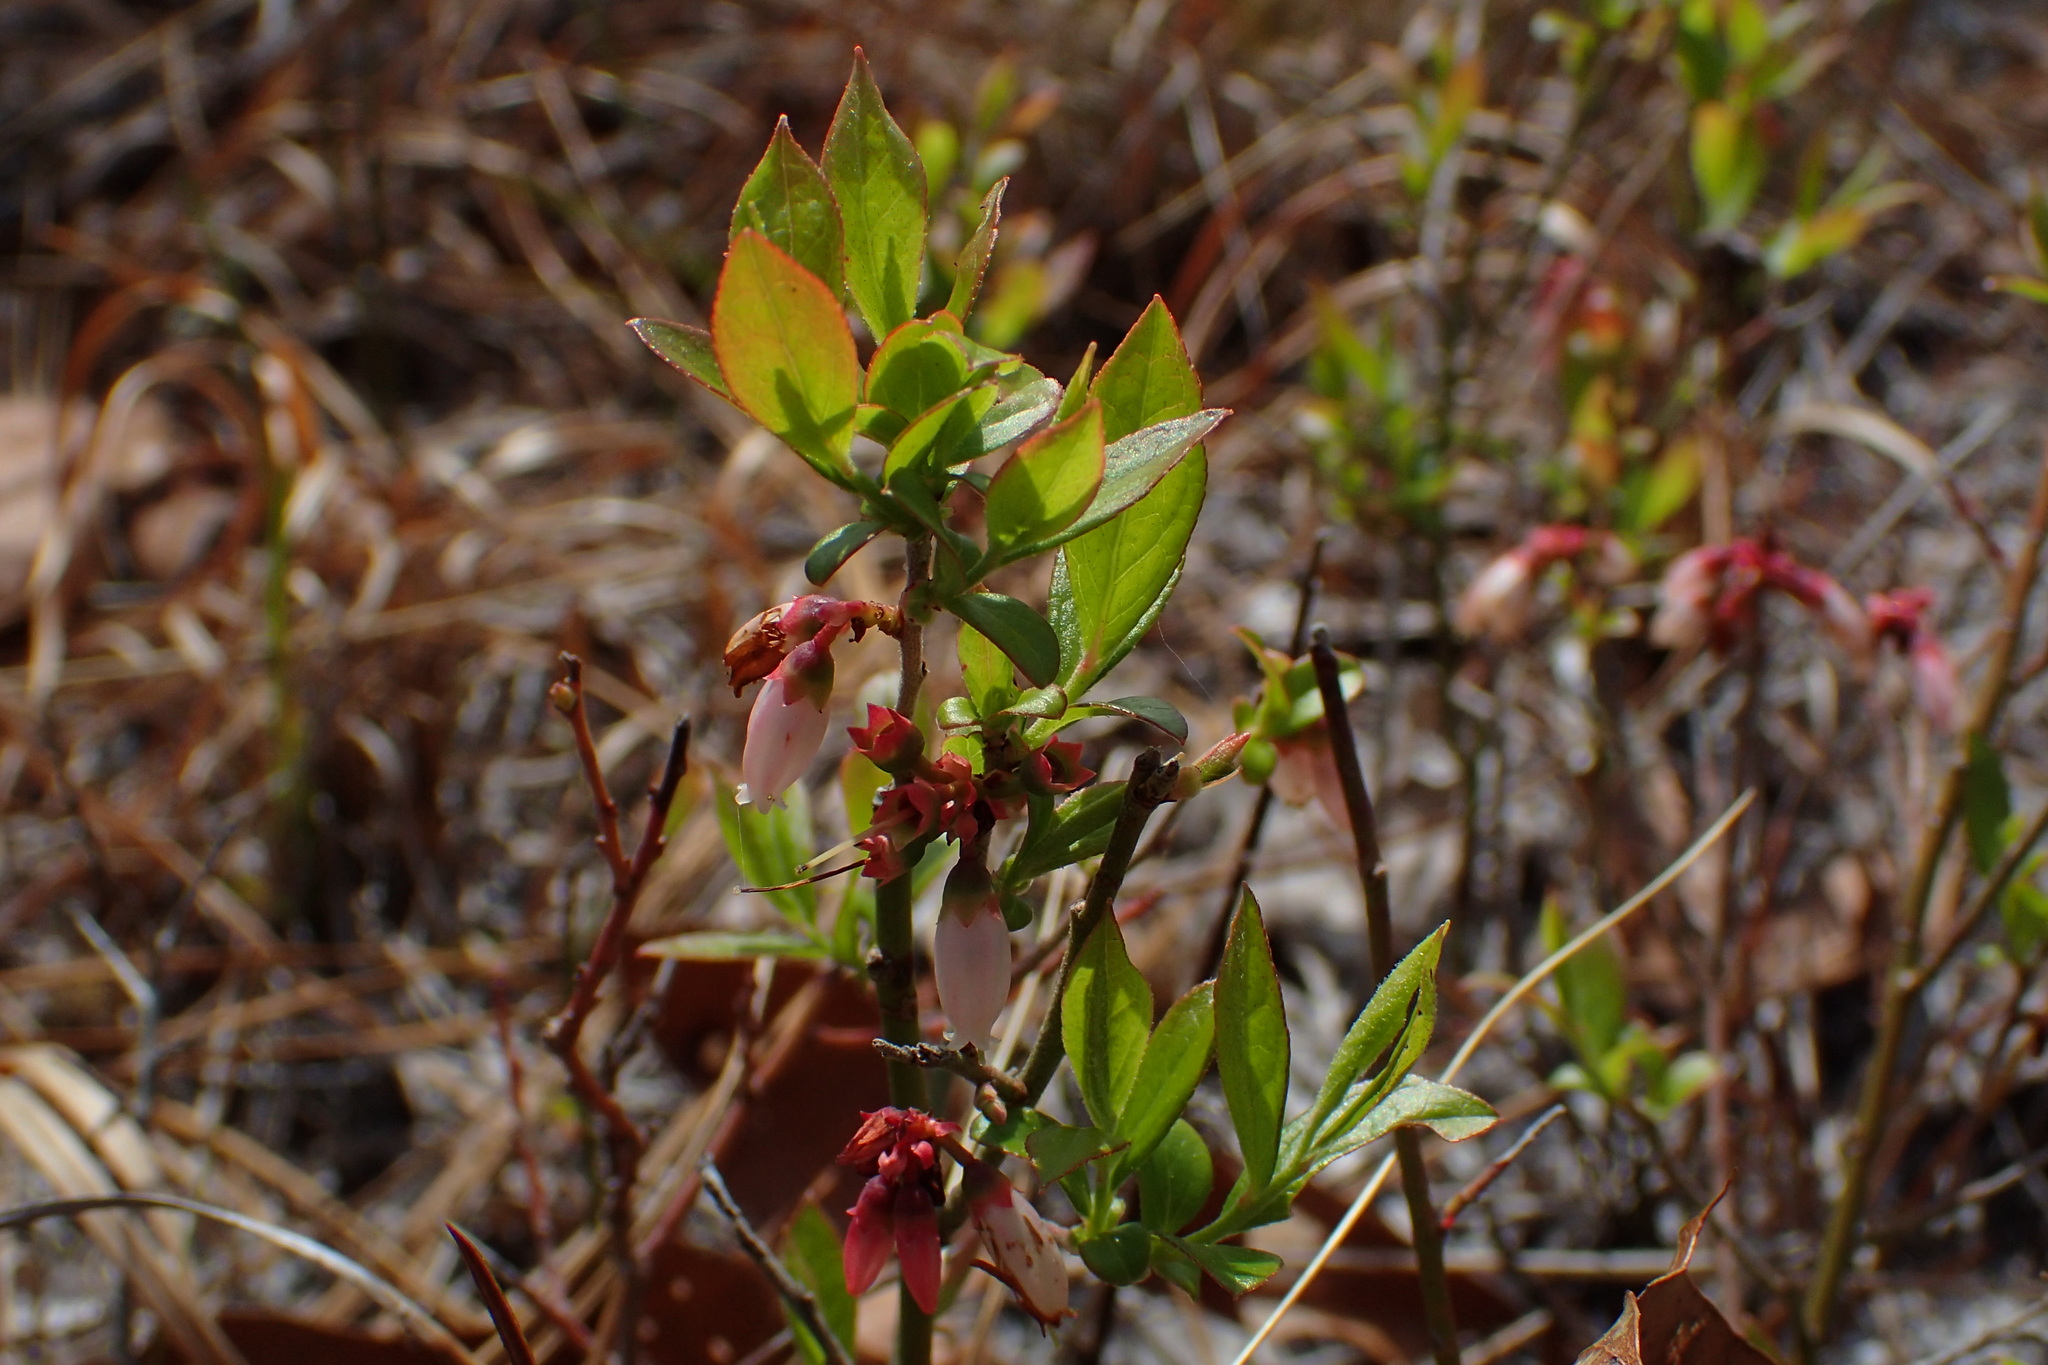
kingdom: Plantae
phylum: Tracheophyta
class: Magnoliopsida
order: Ericales
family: Ericaceae
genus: Vaccinium
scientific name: Vaccinium tenellum
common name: Southern blueberry
